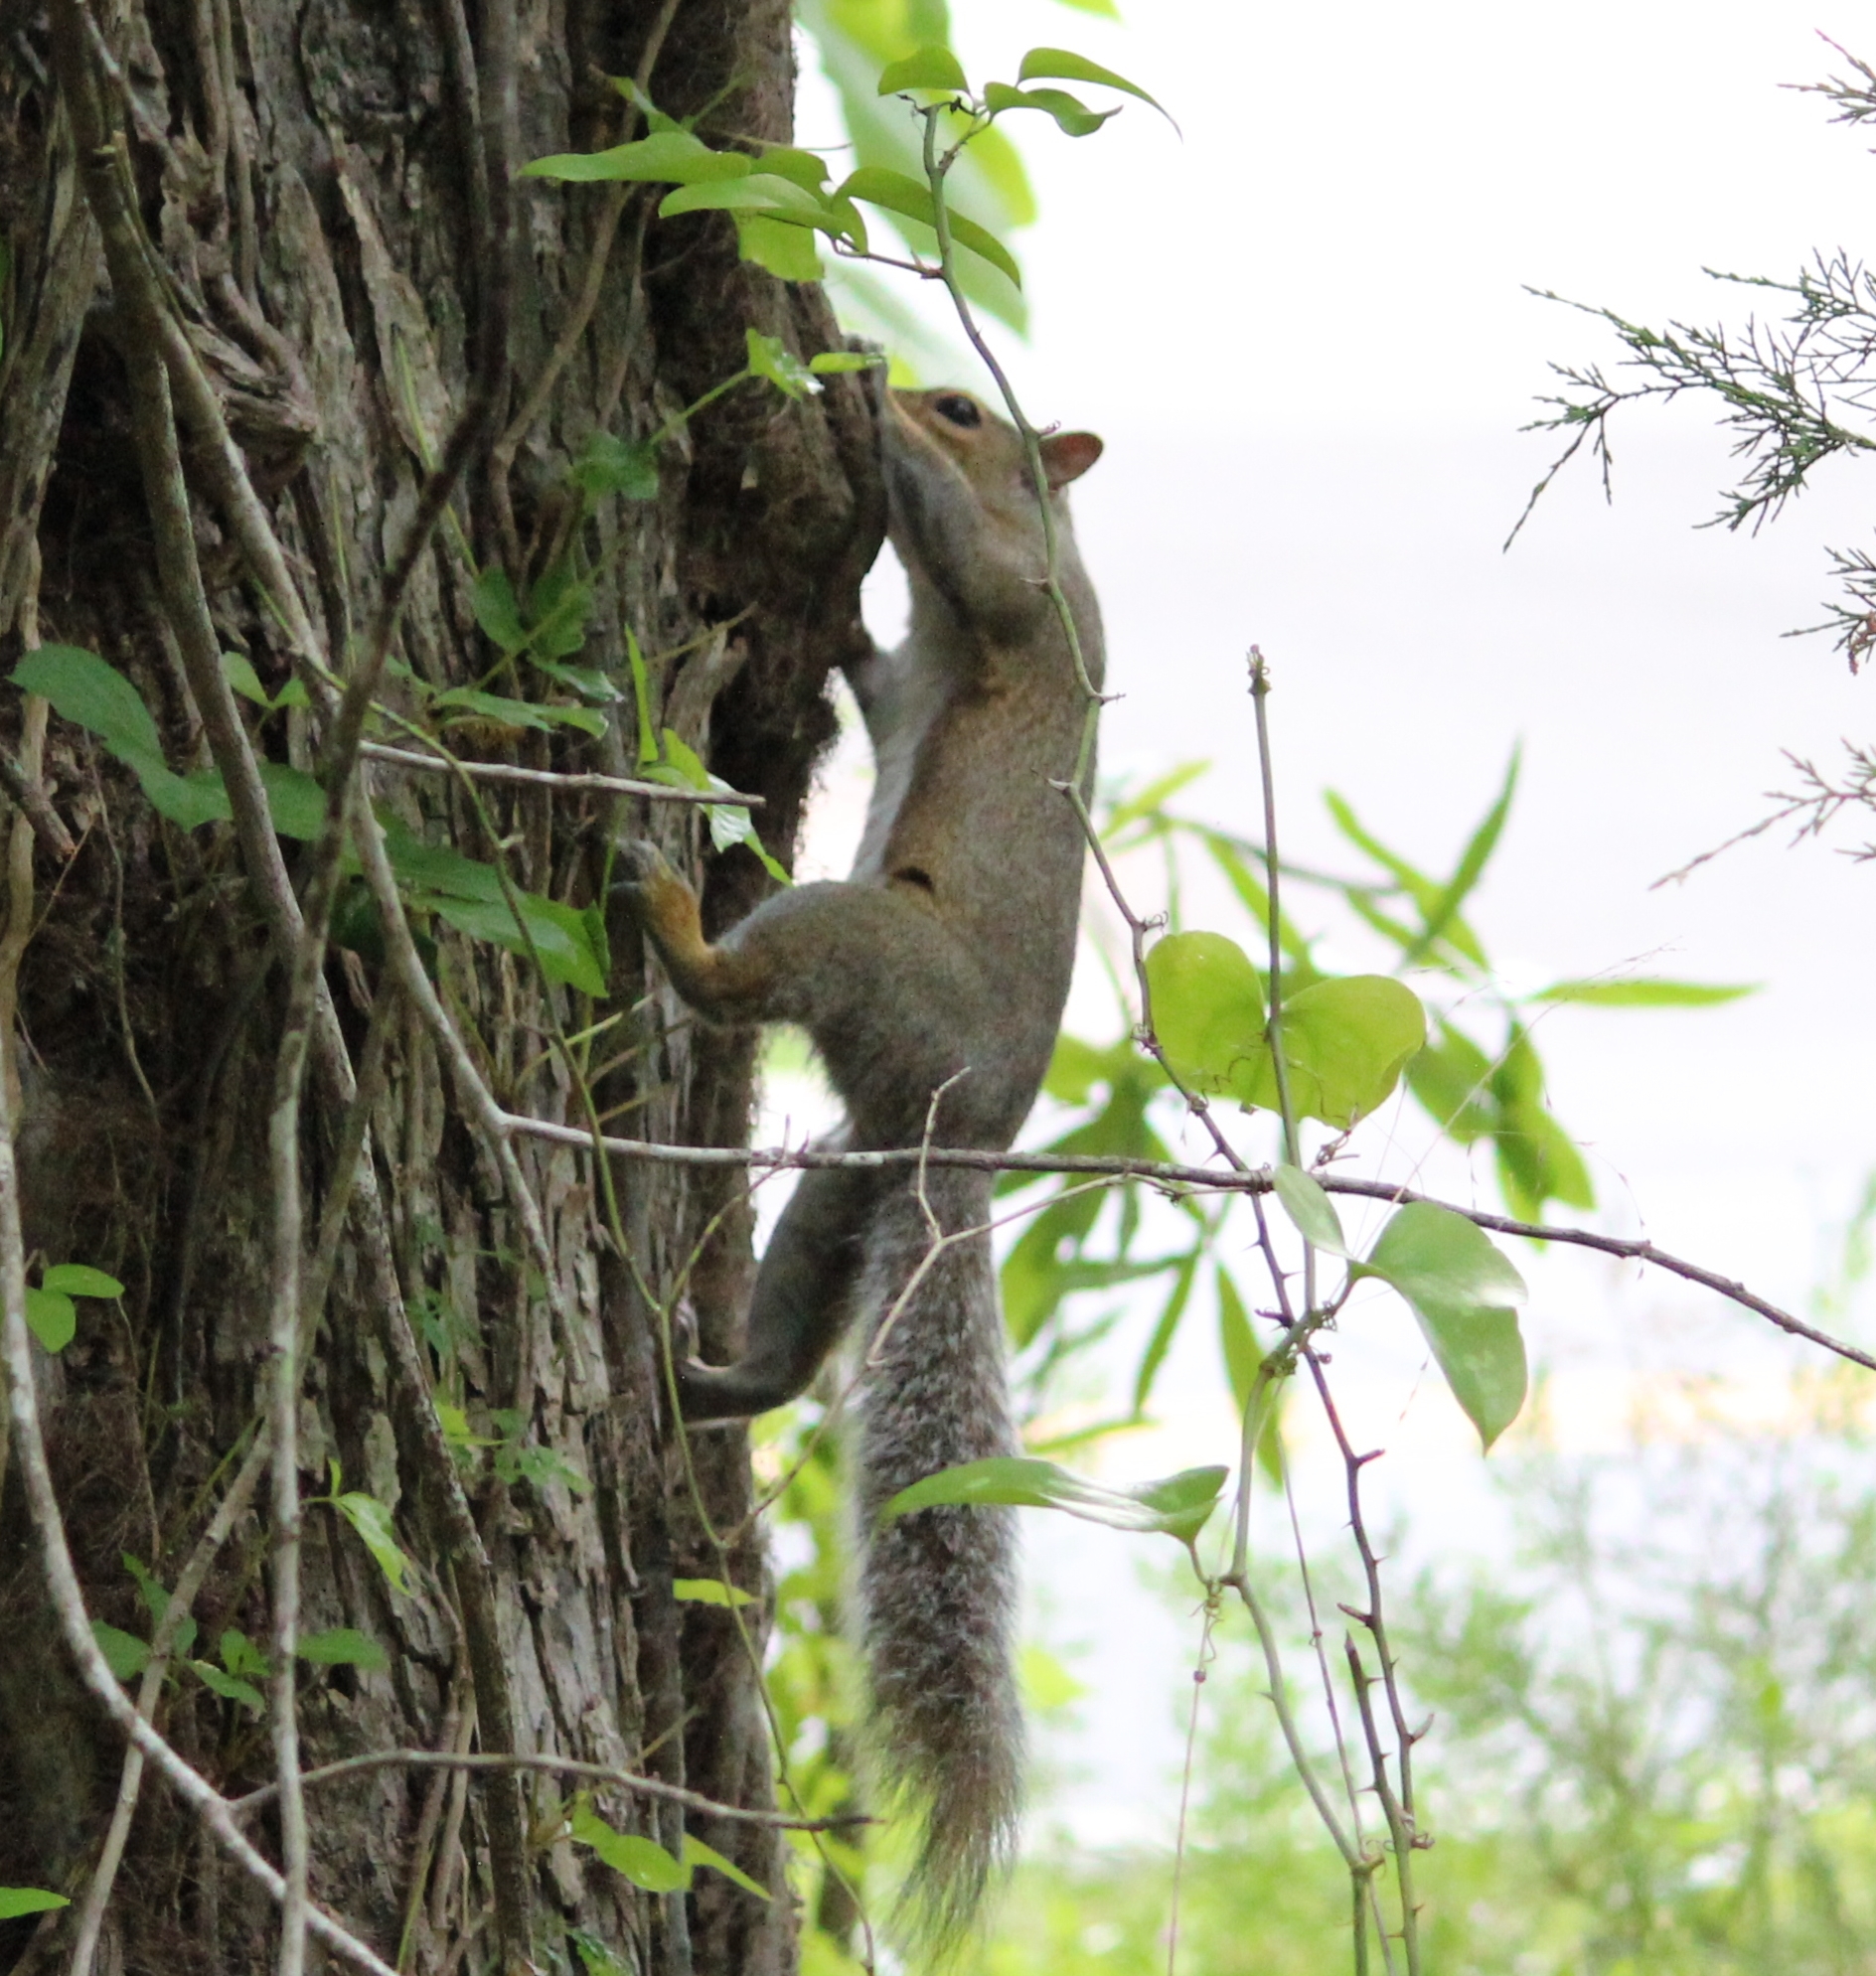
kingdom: Animalia
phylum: Chordata
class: Mammalia
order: Rodentia
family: Sciuridae
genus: Sciurus
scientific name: Sciurus carolinensis
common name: Eastern gray squirrel
